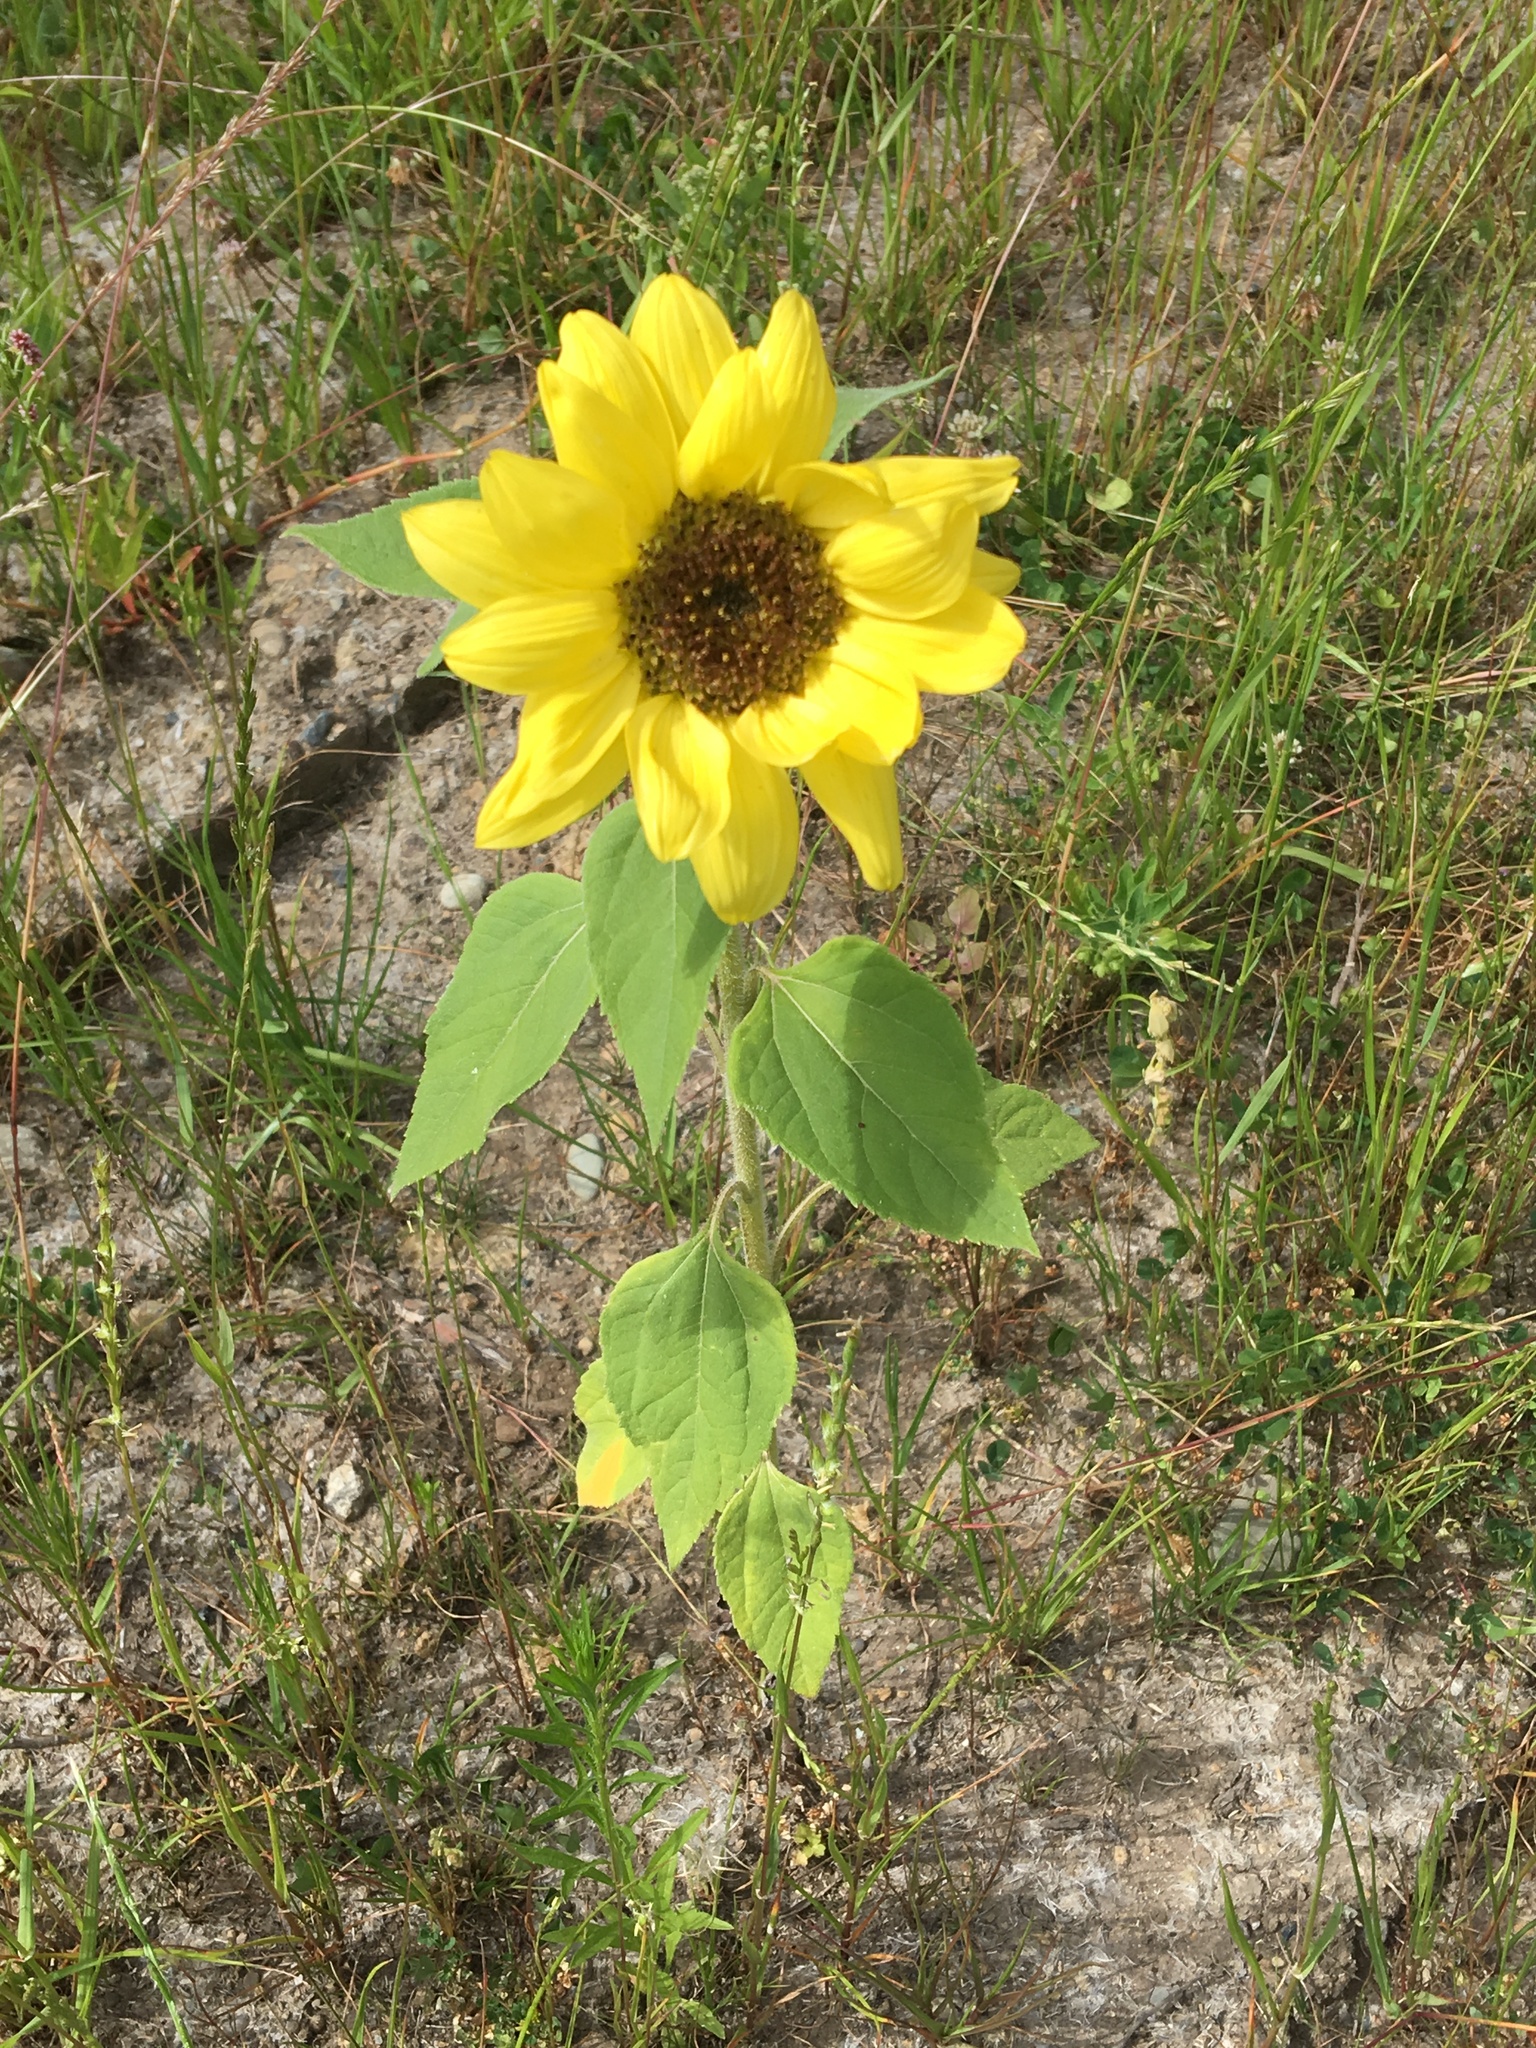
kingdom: Plantae
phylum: Tracheophyta
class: Magnoliopsida
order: Asterales
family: Asteraceae
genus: Helianthus
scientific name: Helianthus annuus
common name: Sunflower
